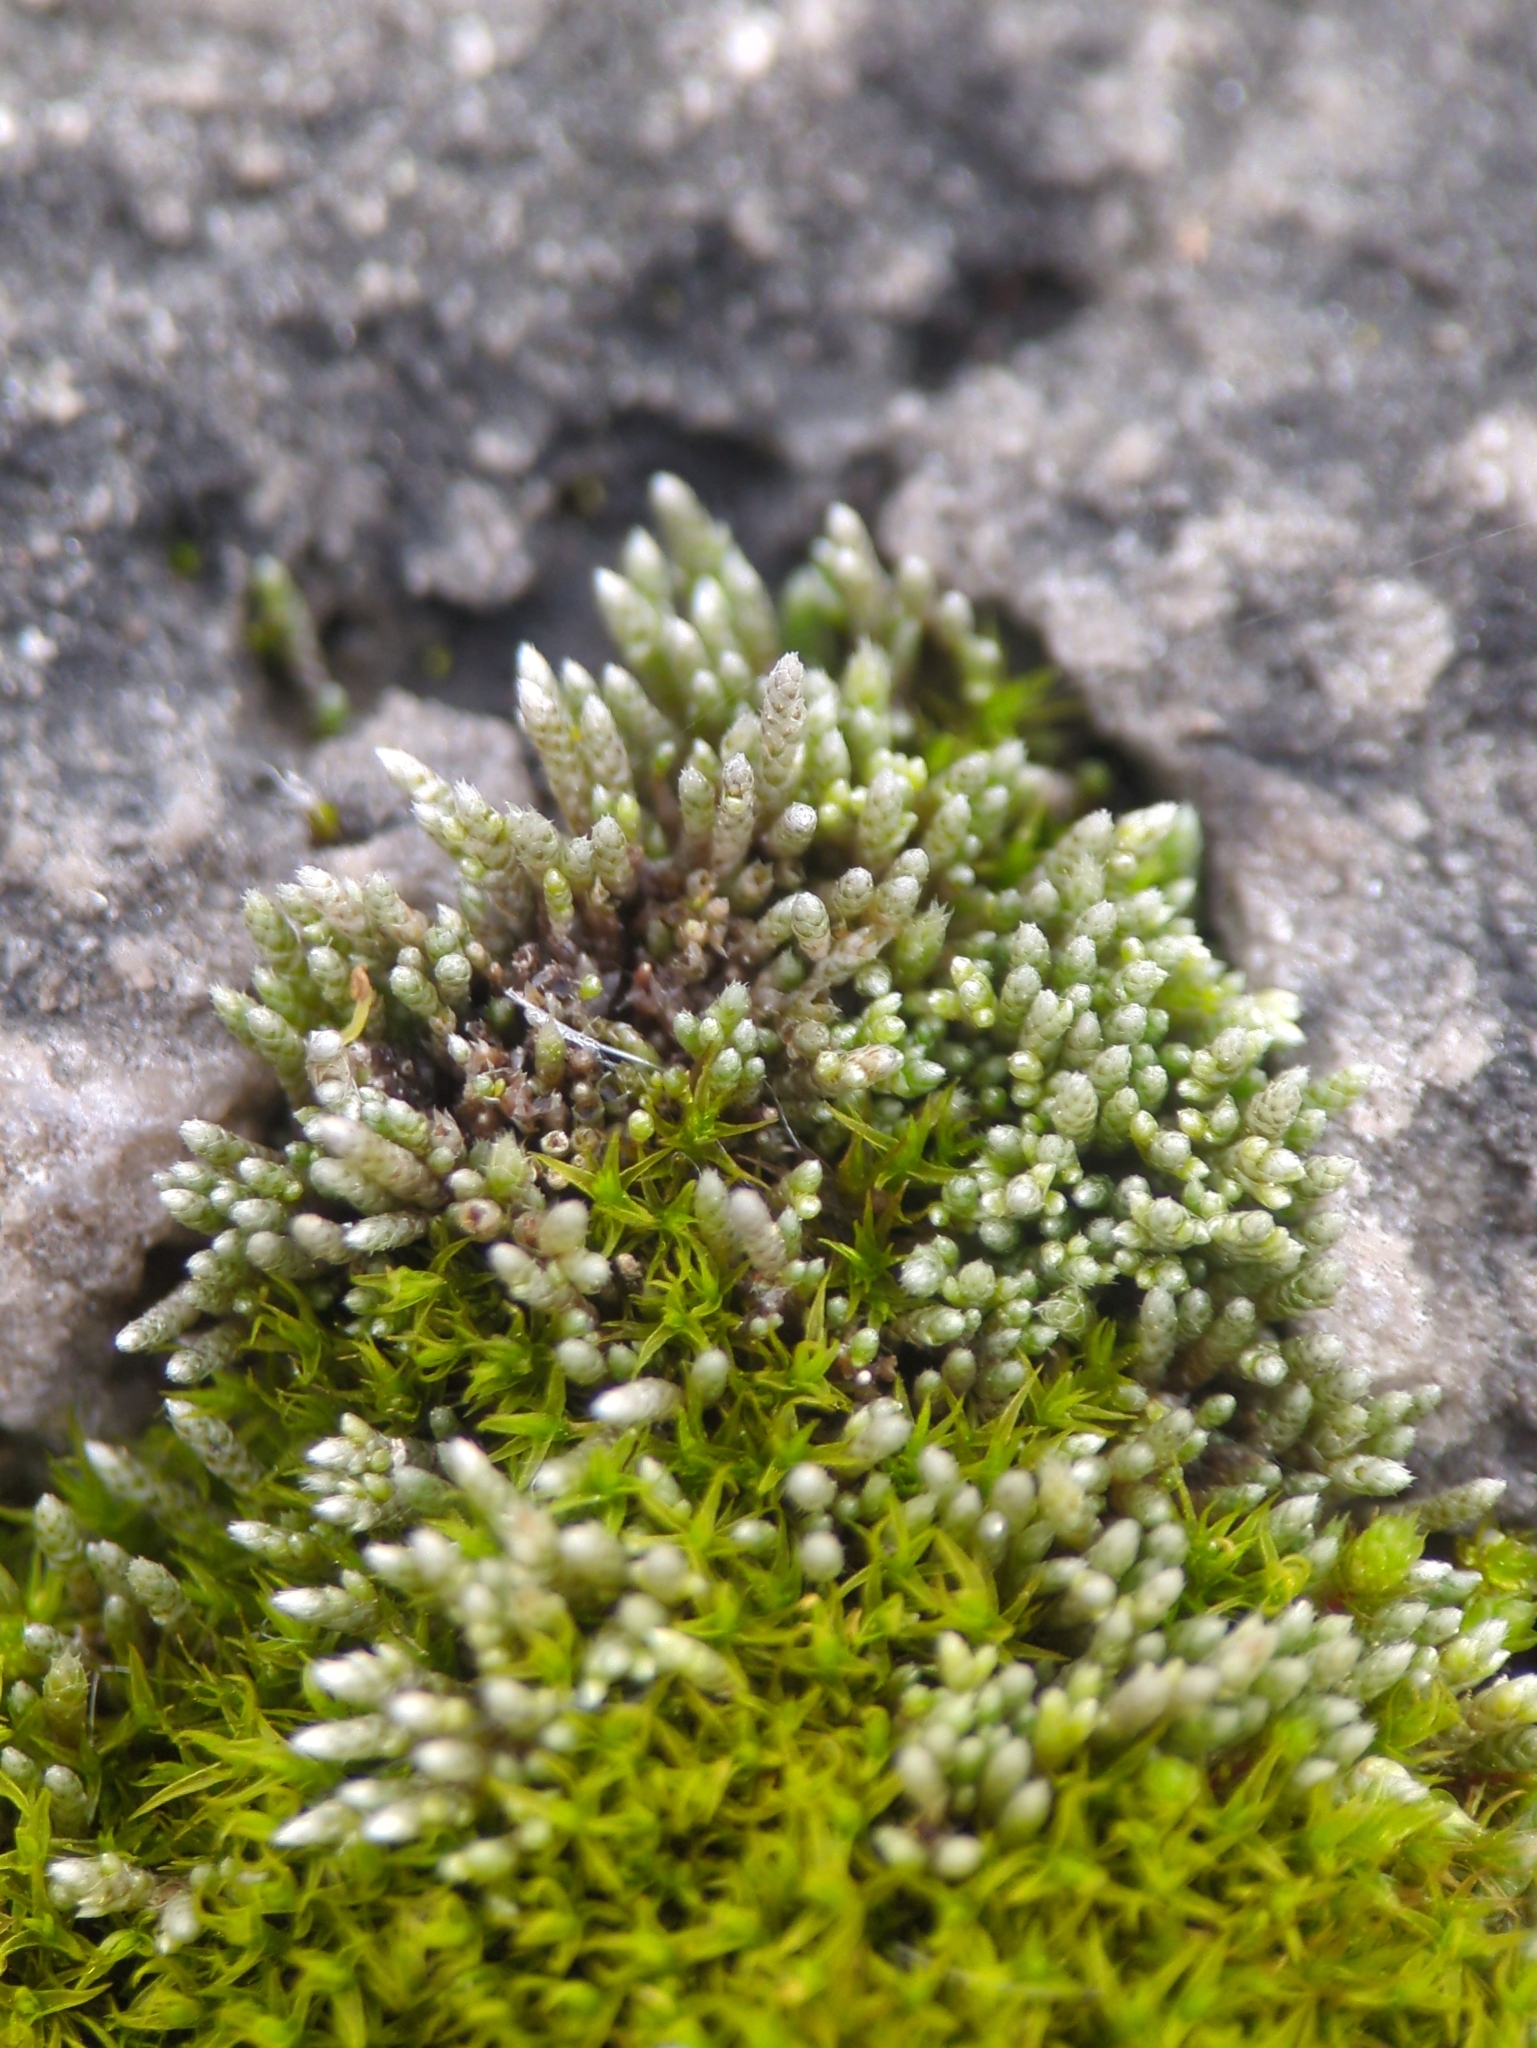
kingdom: Plantae
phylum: Bryophyta
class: Bryopsida
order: Bryales
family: Bryaceae
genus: Bryum
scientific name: Bryum argenteum
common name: Silver-moss
